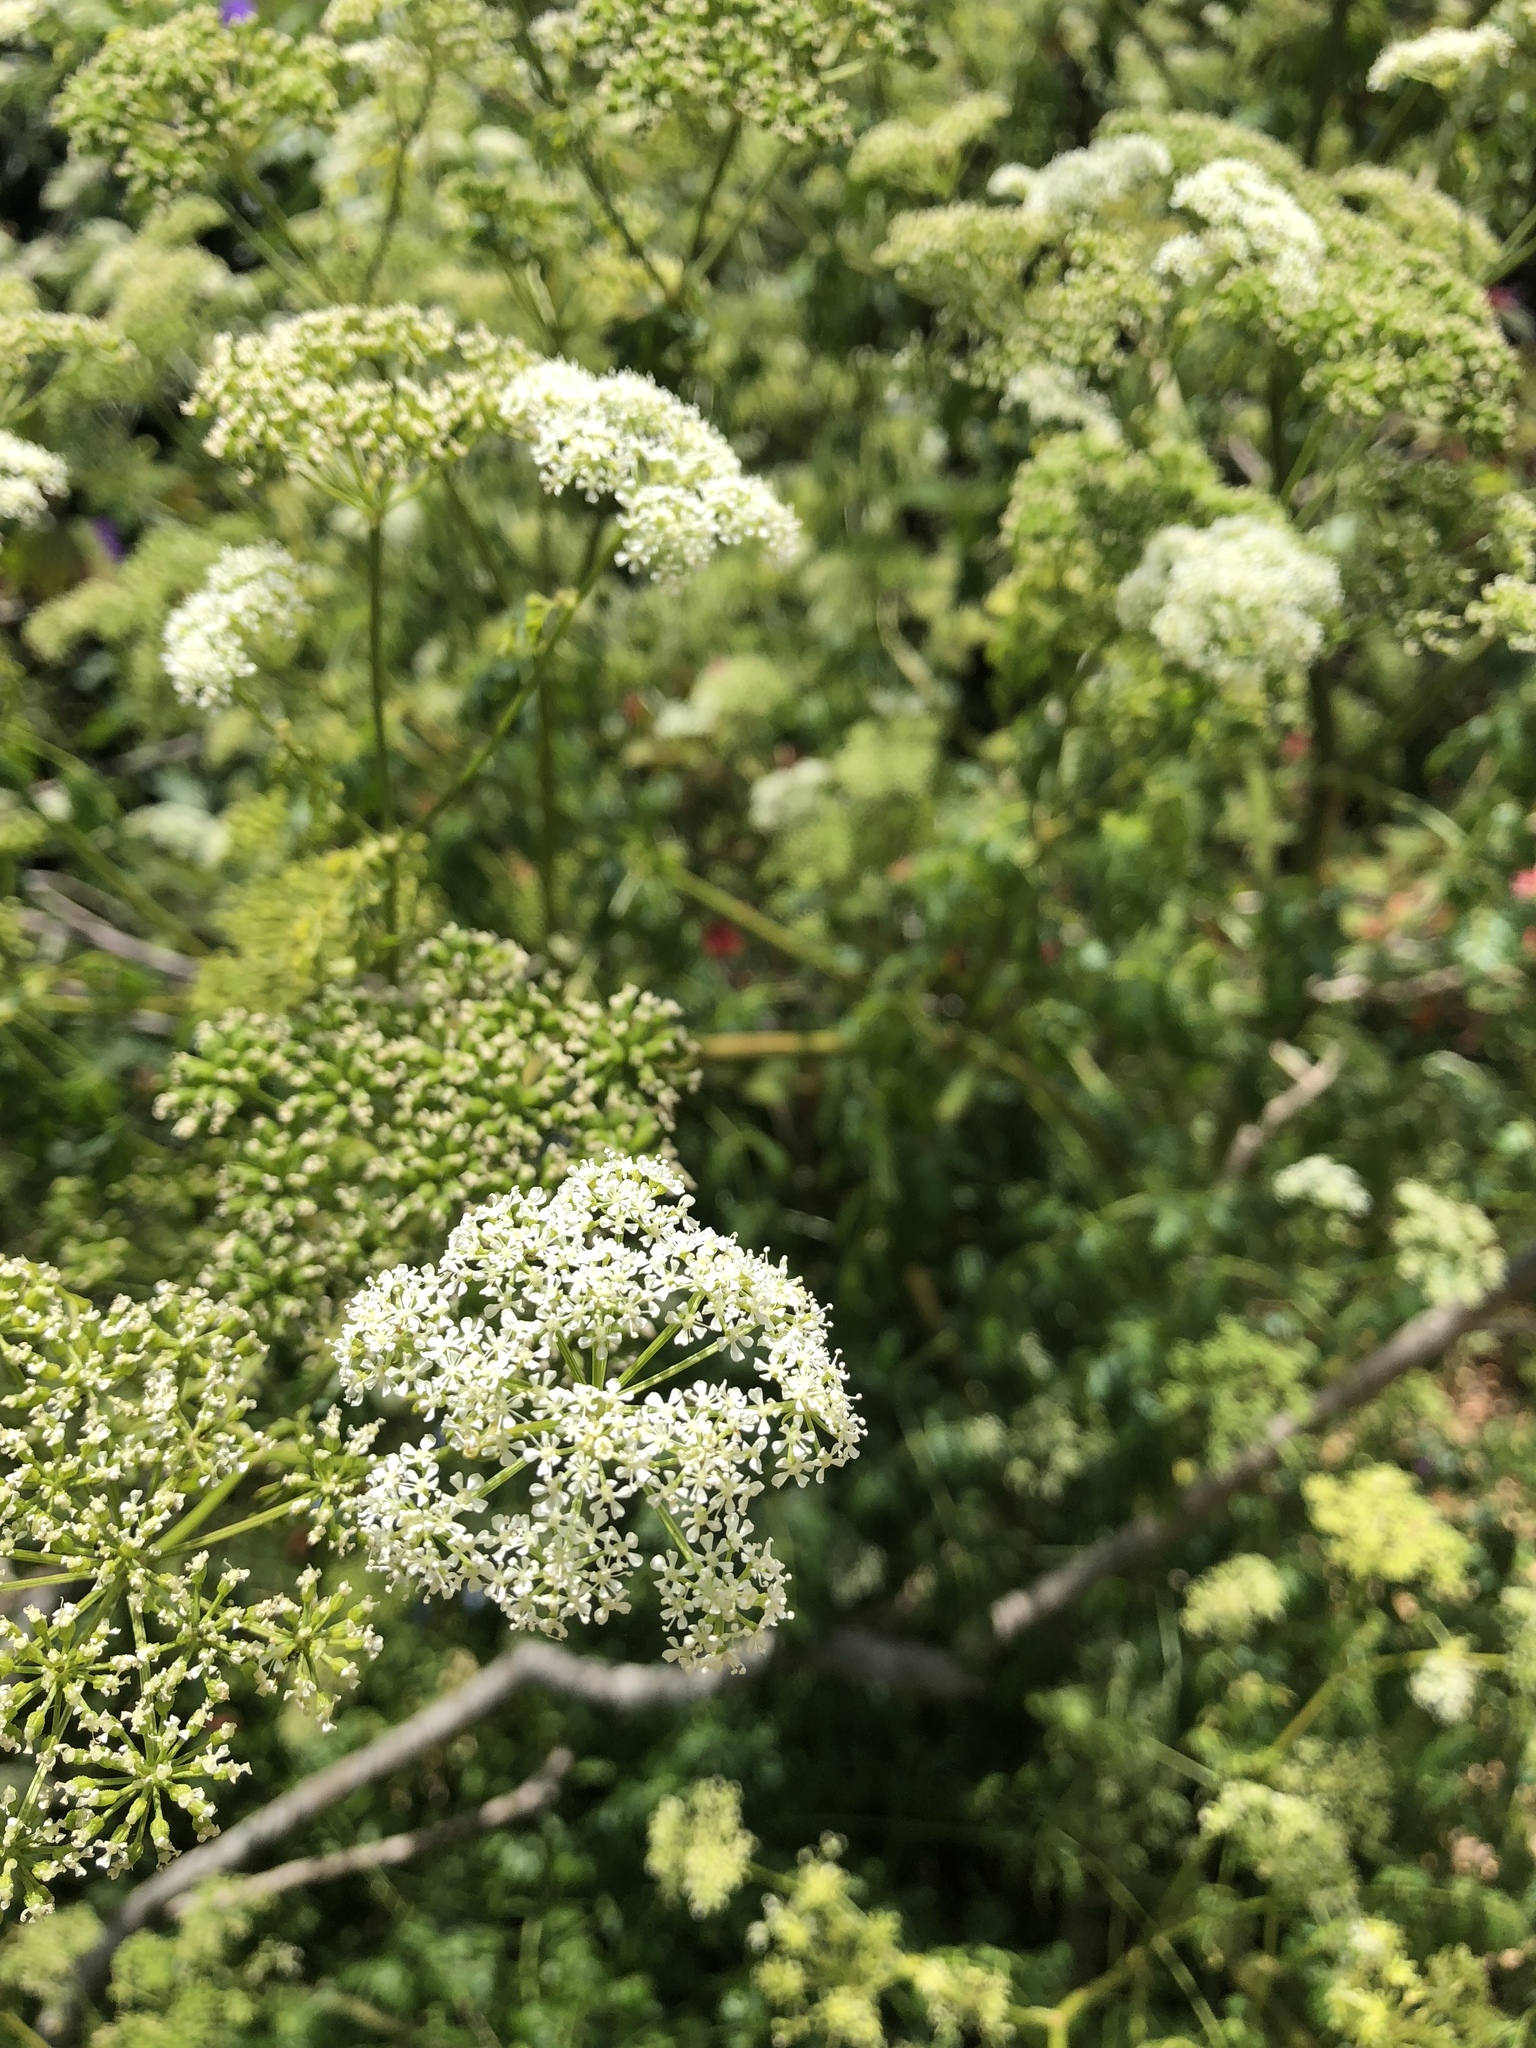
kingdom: Plantae
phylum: Tracheophyta
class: Magnoliopsida
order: Apiales
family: Apiaceae
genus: Conium
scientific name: Conium maculatum
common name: Hemlock
